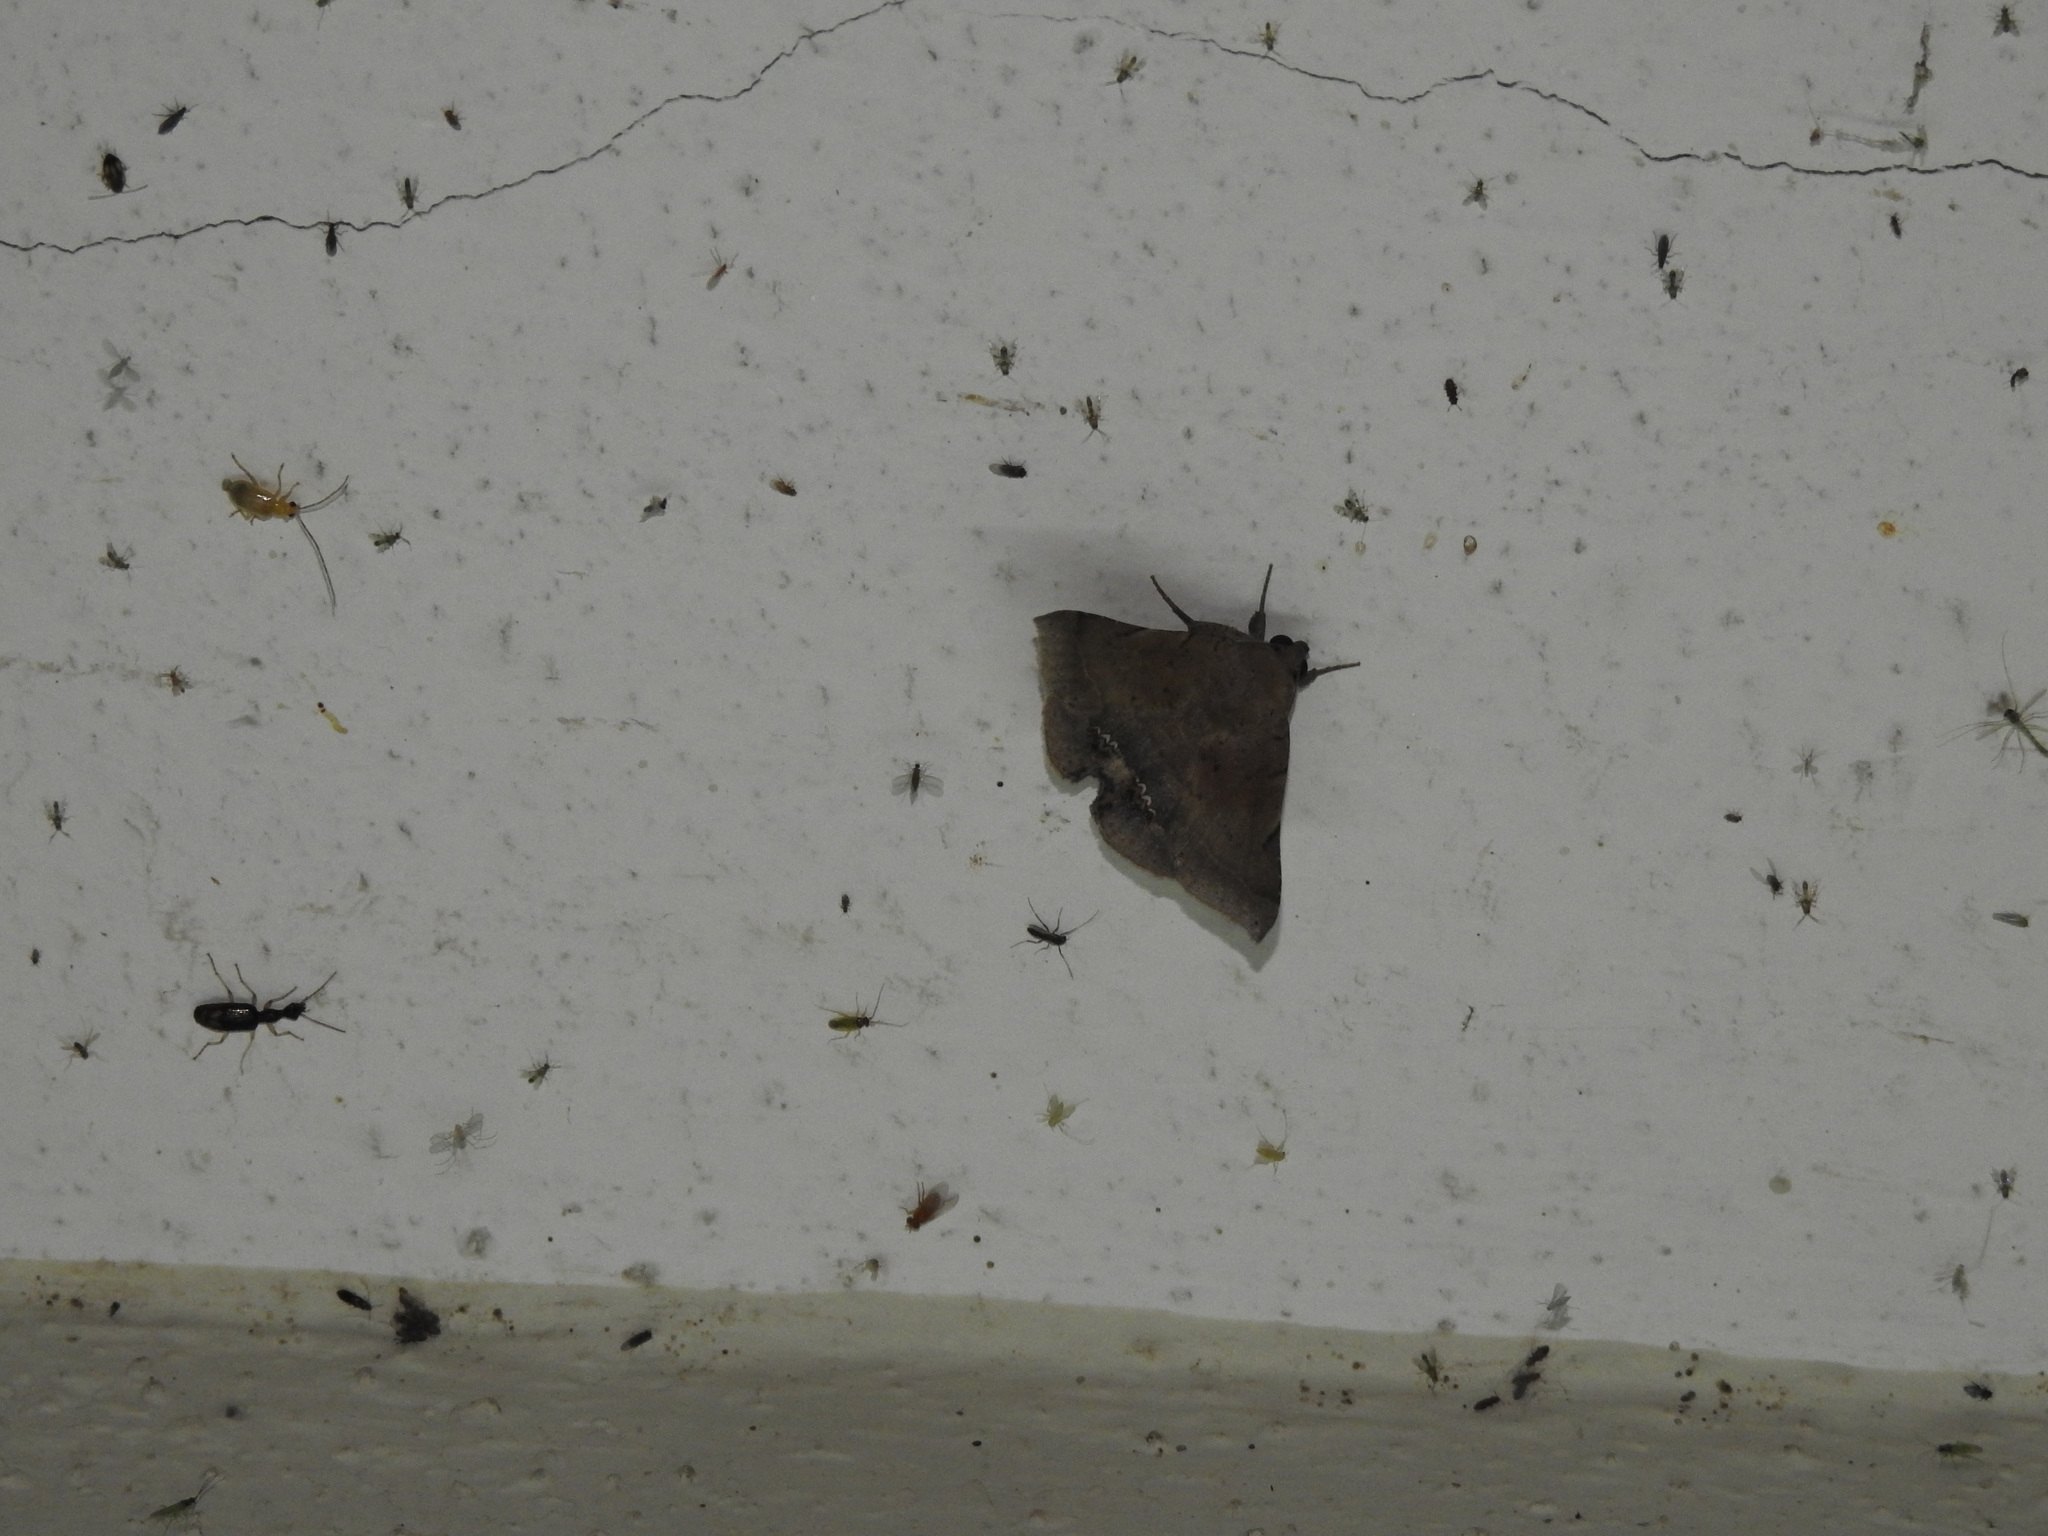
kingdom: Animalia
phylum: Arthropoda
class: Insecta
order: Lepidoptera
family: Erebidae
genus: Macaldenia
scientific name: Macaldenia palumba
